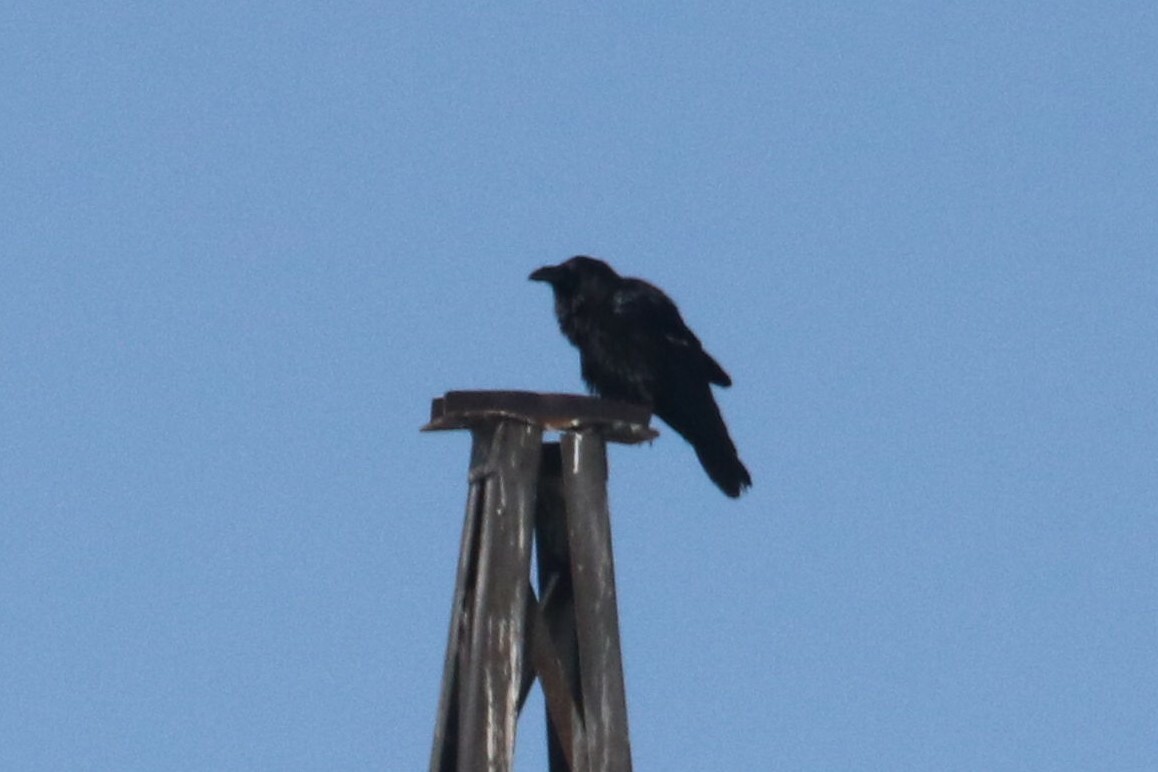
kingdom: Animalia
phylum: Chordata
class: Aves
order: Passeriformes
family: Corvidae
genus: Corvus
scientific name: Corvus corax
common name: Common raven
